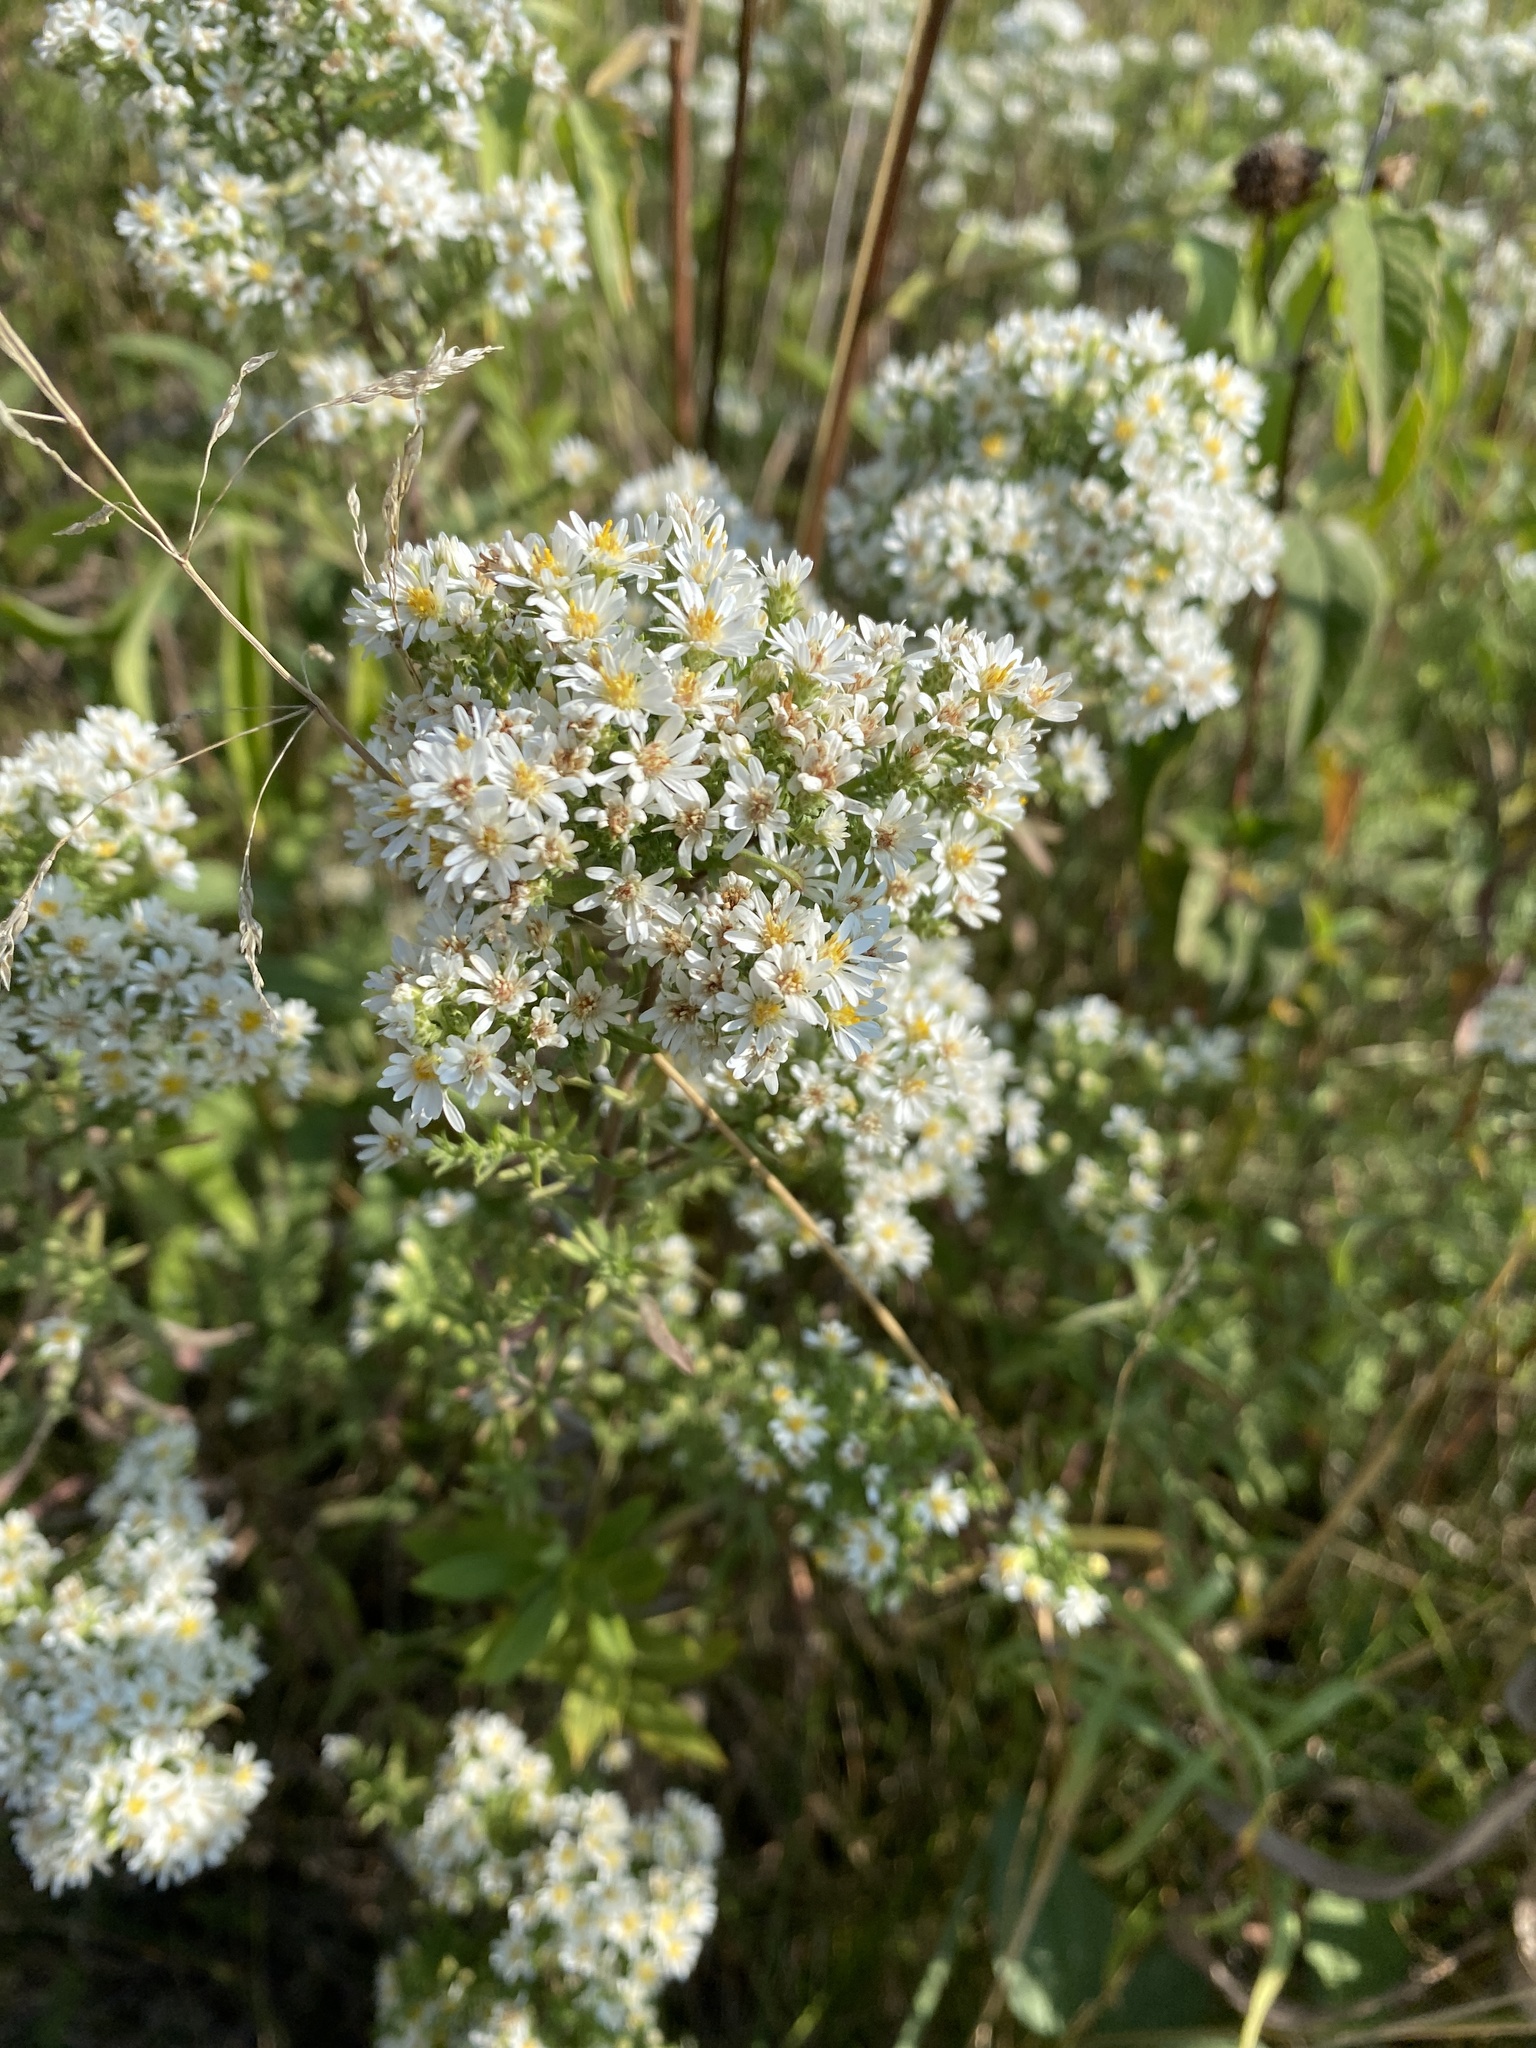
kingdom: Plantae
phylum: Tracheophyta
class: Magnoliopsida
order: Asterales
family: Asteraceae
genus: Symphyotrichum
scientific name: Symphyotrichum ericoides
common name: Heath aster
